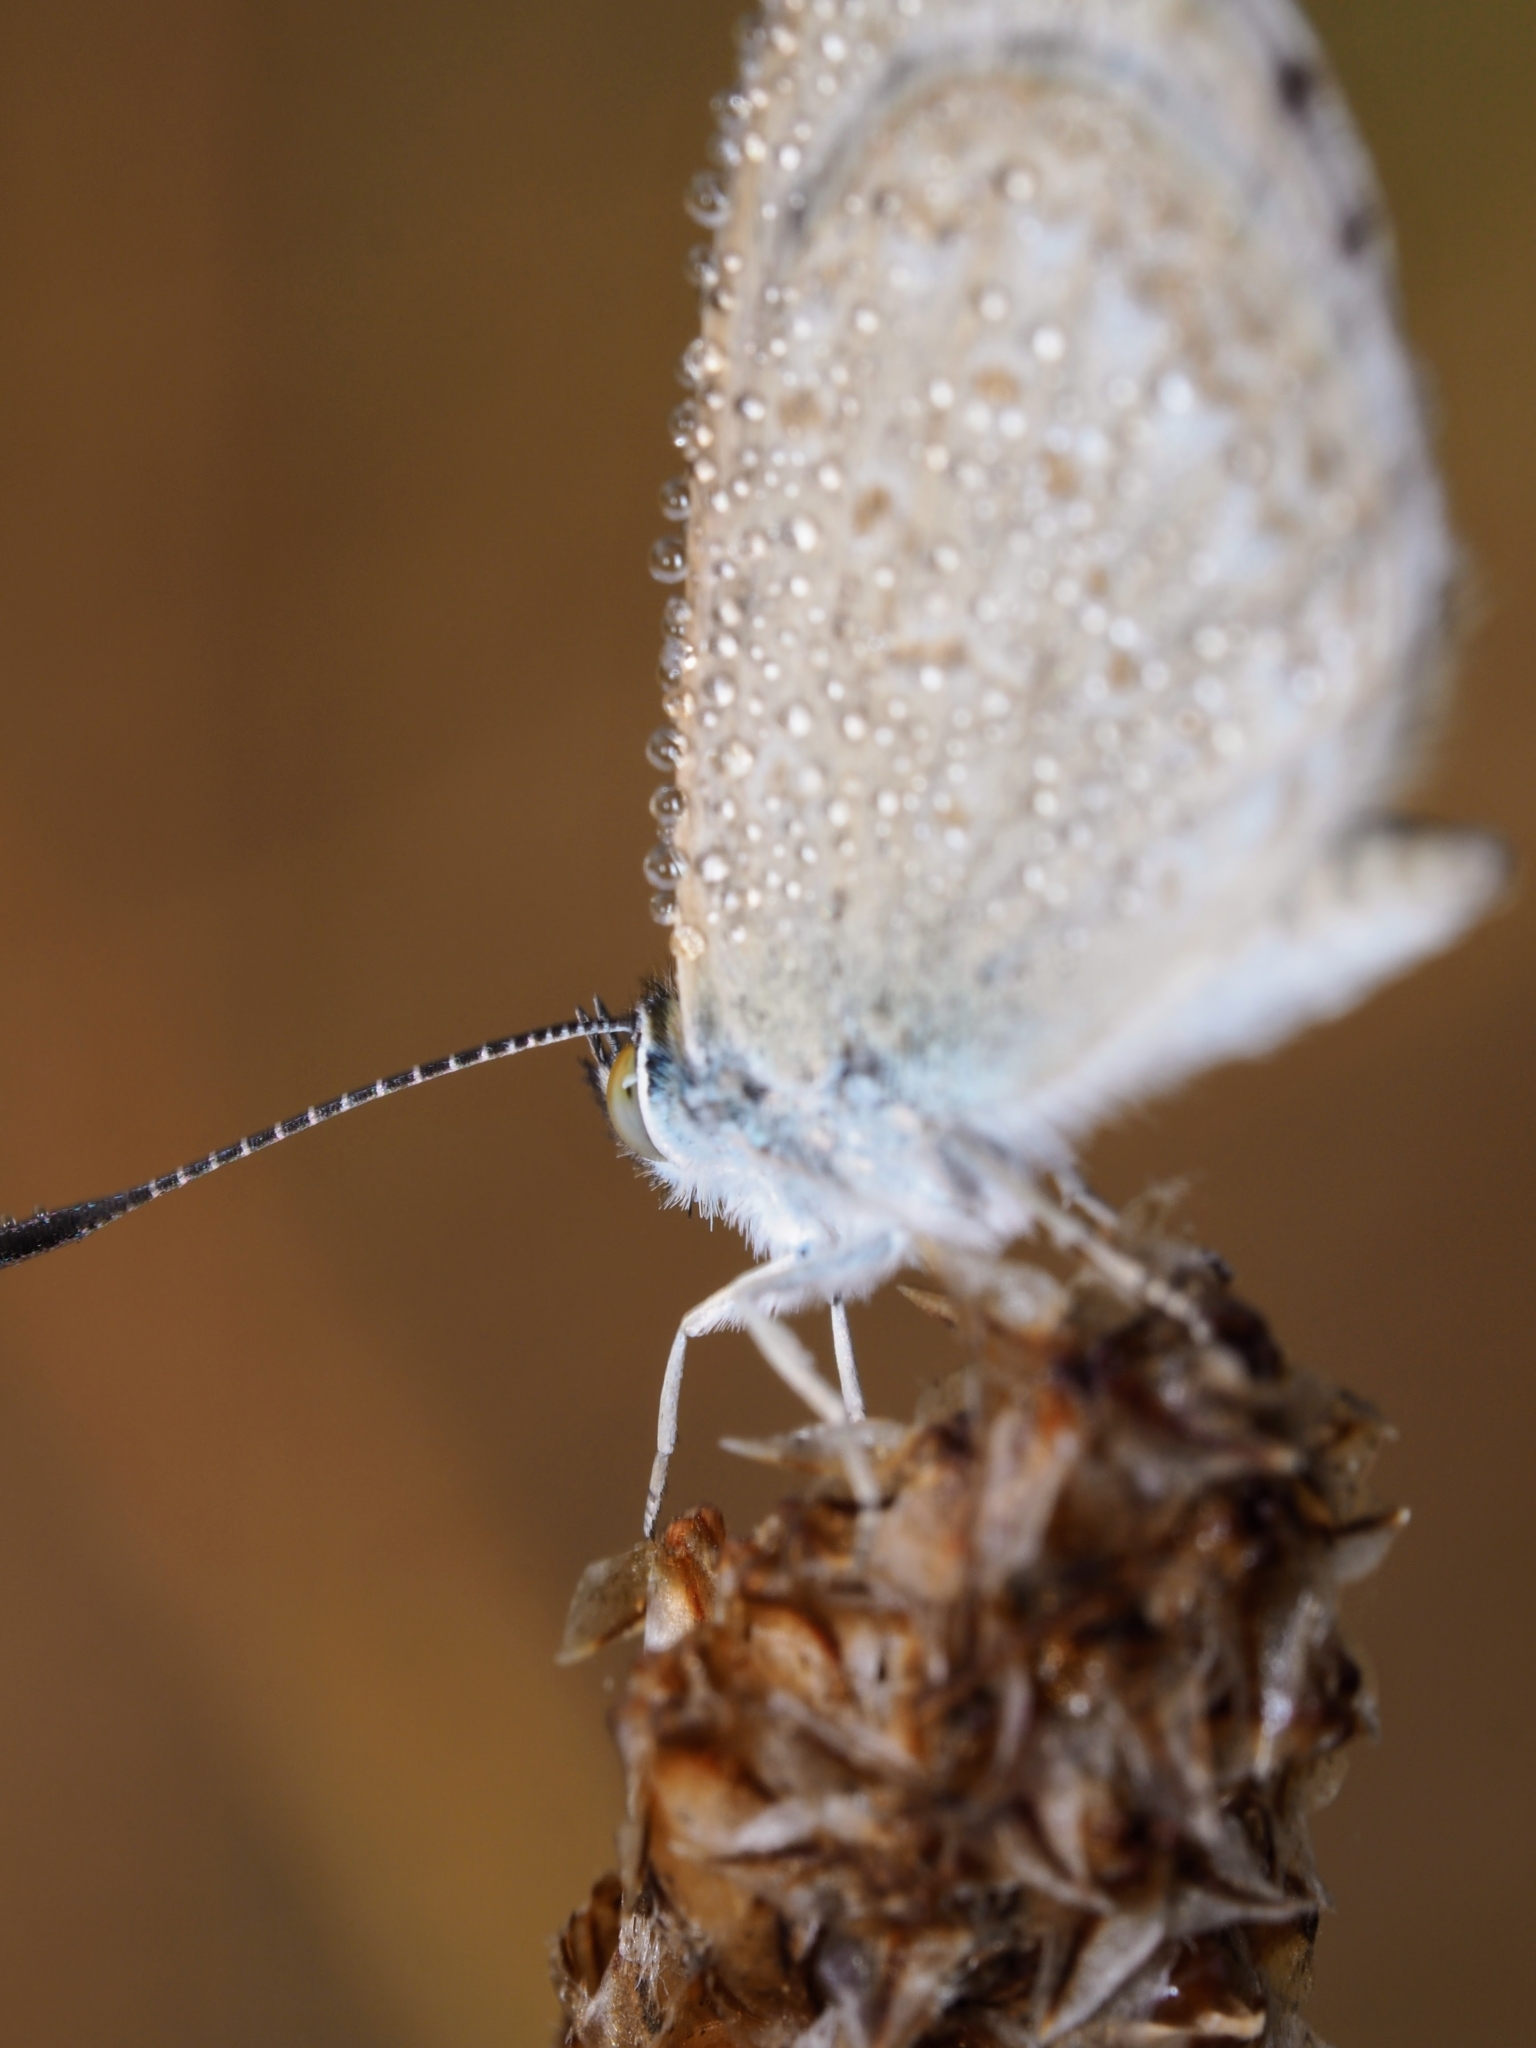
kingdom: Animalia
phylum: Arthropoda
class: Insecta
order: Lepidoptera
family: Lycaenidae
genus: Zizina
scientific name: Zizina labradus
